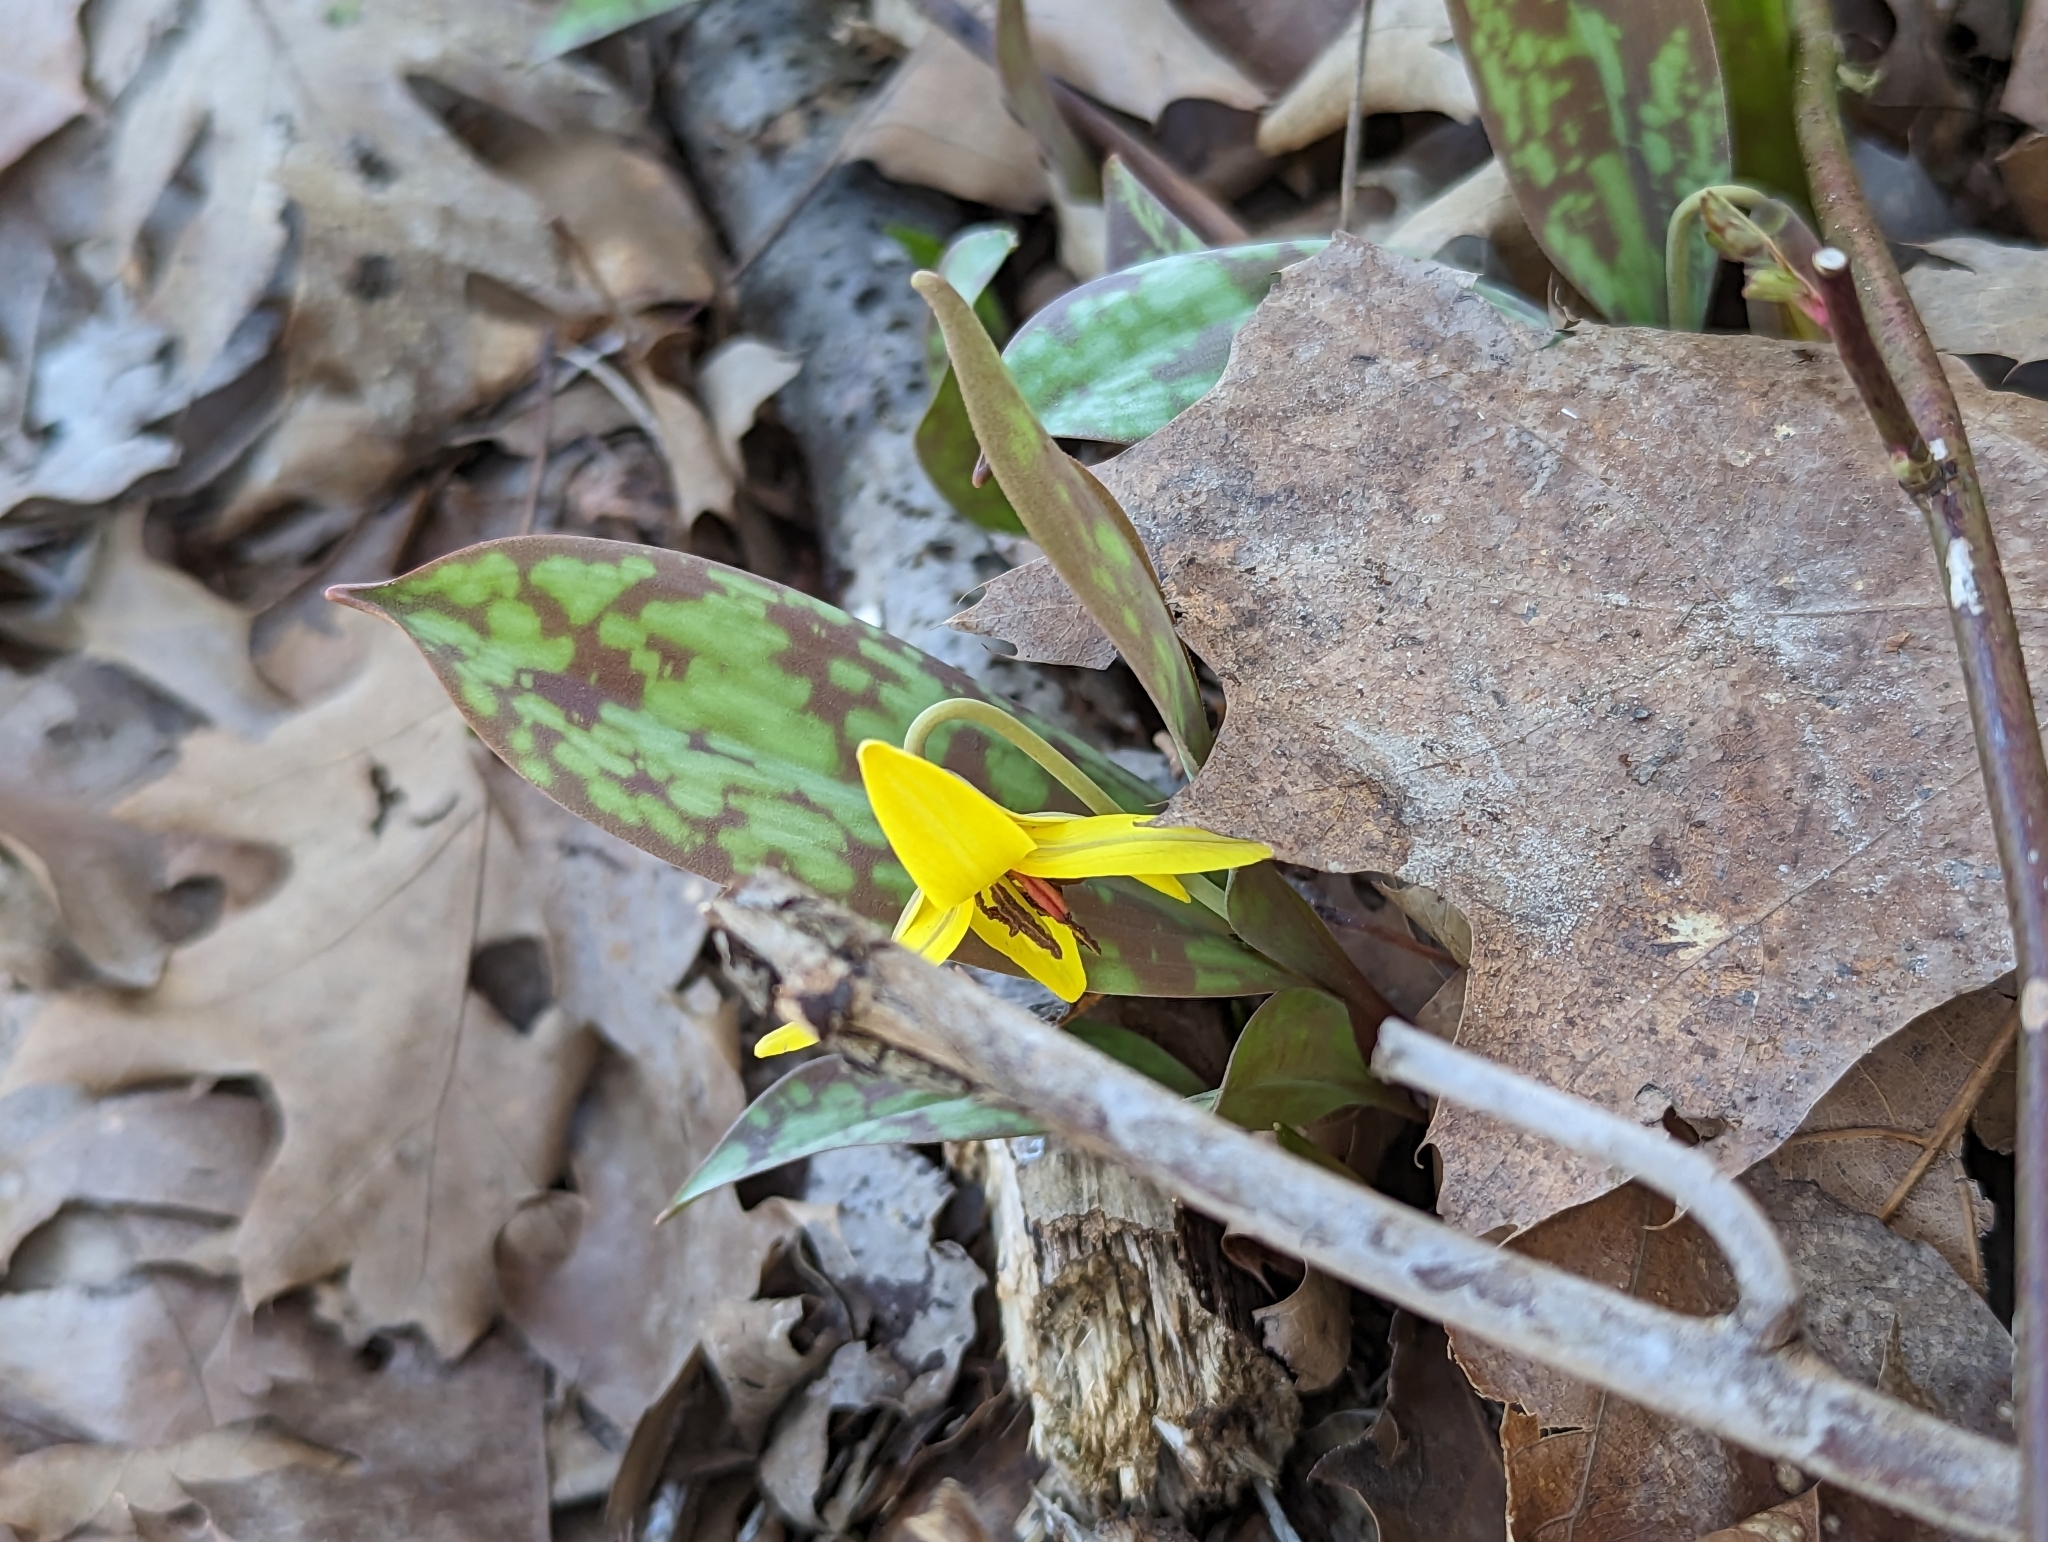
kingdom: Plantae
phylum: Tracheophyta
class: Liliopsida
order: Liliales
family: Liliaceae
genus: Erythronium
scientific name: Erythronium americanum
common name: Yellow adder's-tongue
